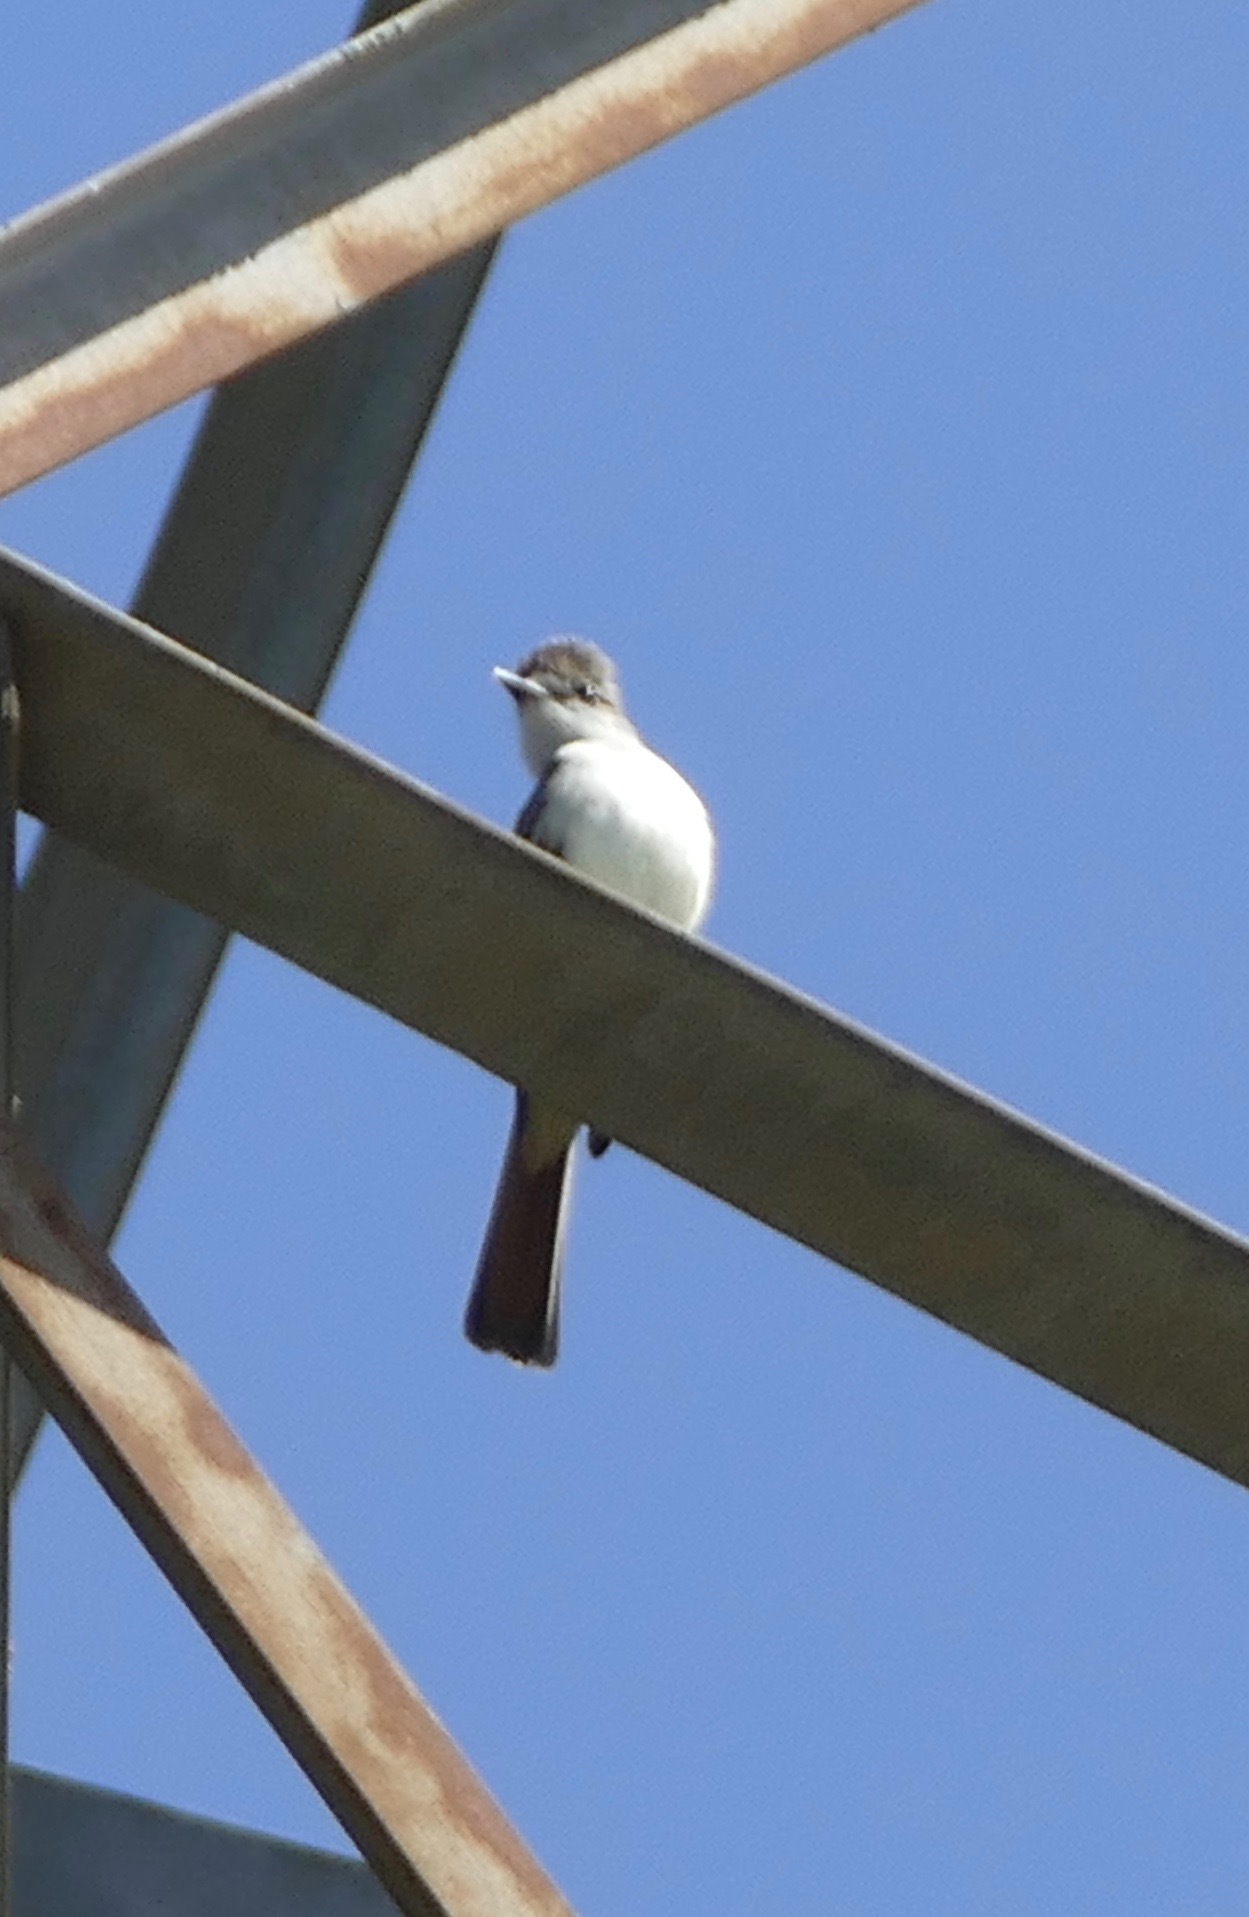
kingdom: Animalia
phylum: Chordata
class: Aves
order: Passeriformes
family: Tyrannidae
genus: Myiarchus
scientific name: Myiarchus cinerascens
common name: Ash-throated flycatcher
